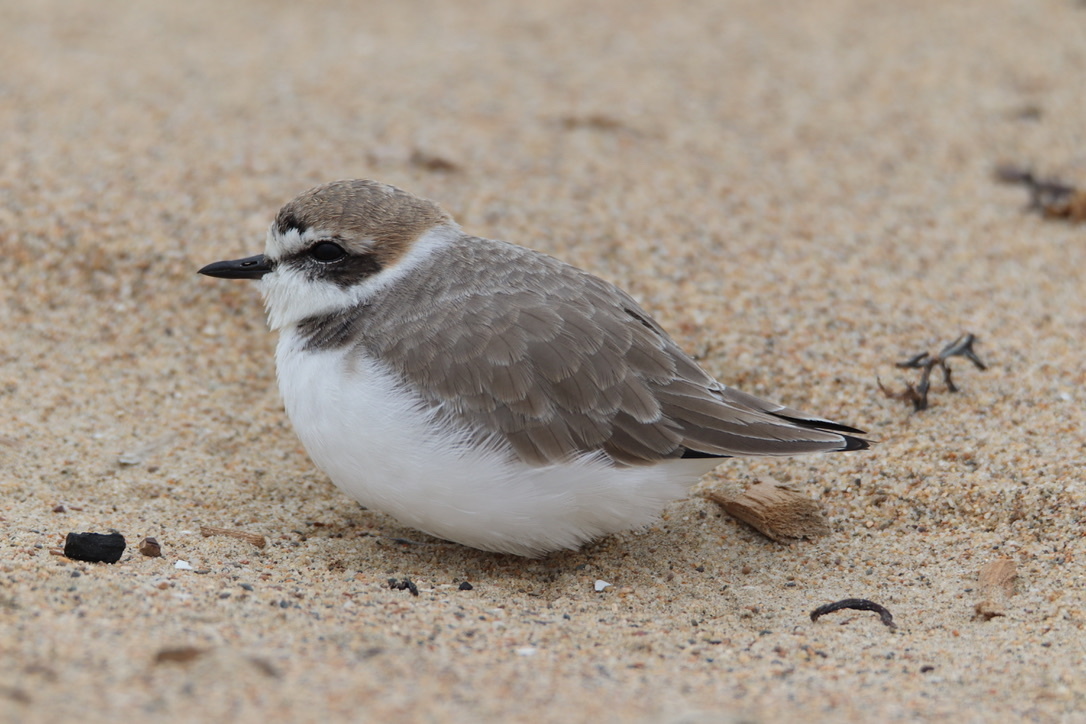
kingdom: Animalia
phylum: Chordata
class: Aves
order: Charadriiformes
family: Charadriidae
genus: Anarhynchus
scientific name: Anarhynchus
